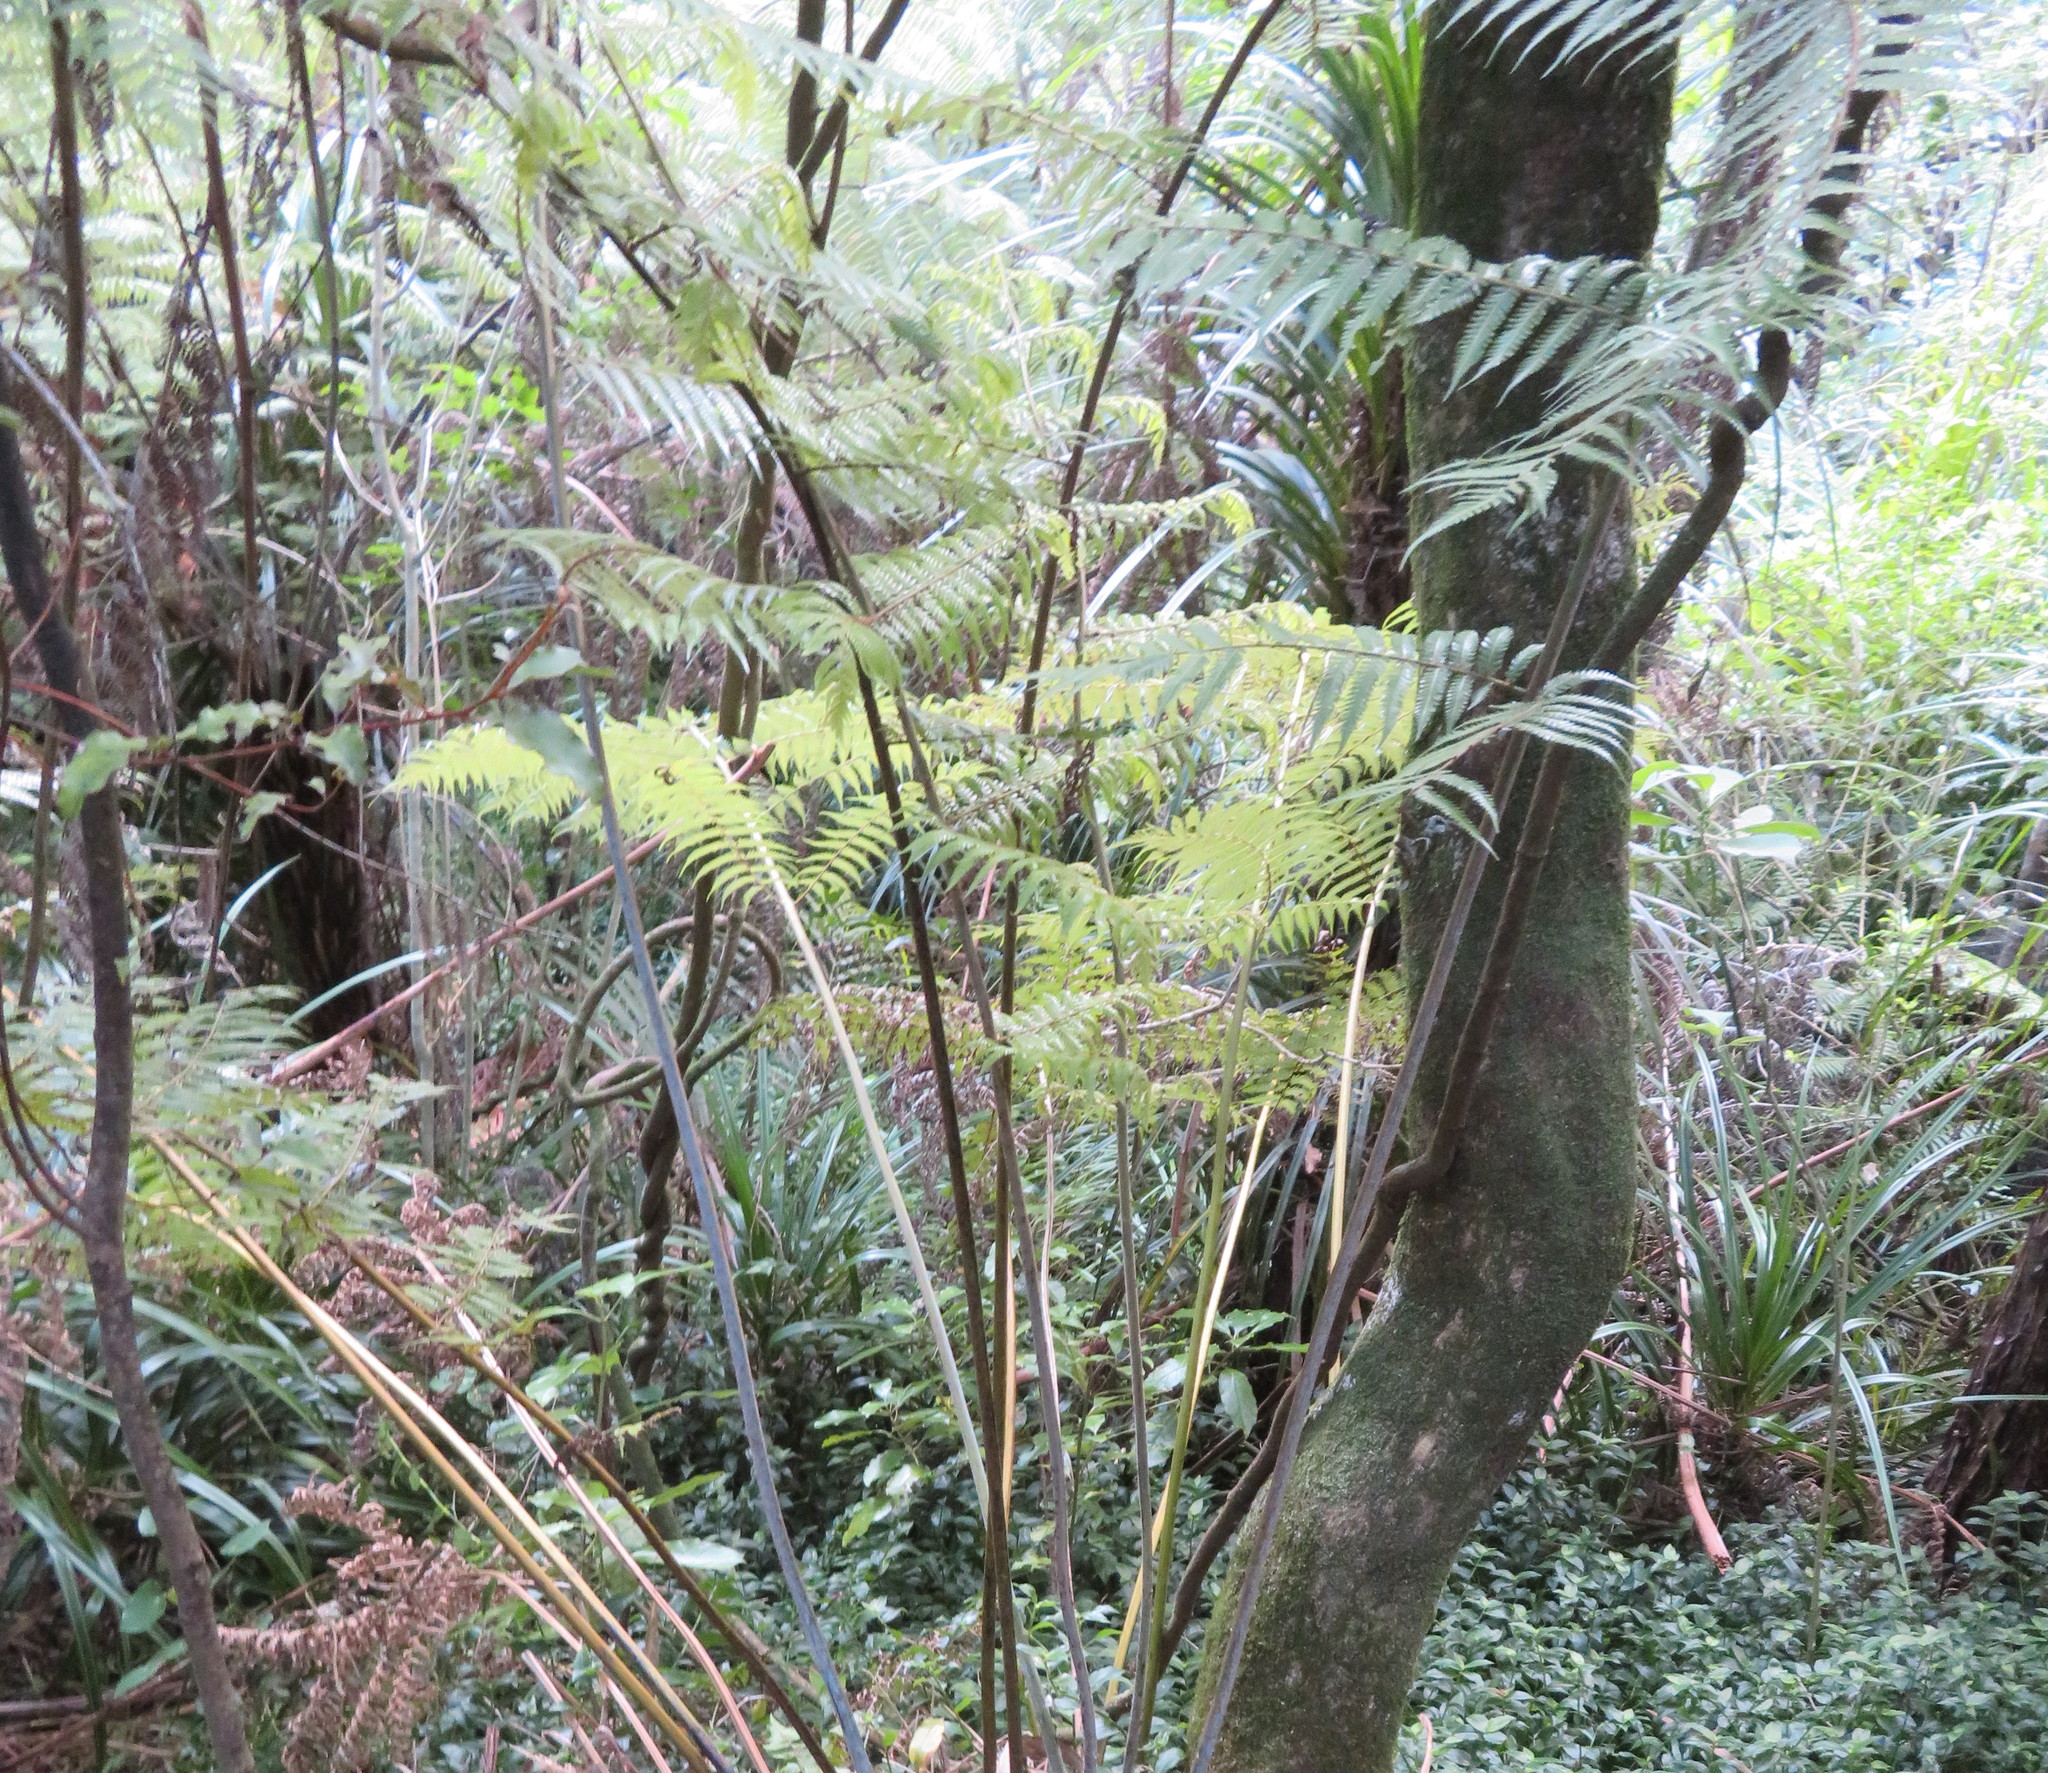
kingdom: Plantae
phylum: Tracheophyta
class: Polypodiopsida
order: Cyatheales
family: Cyatheaceae
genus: Alsophila
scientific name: Alsophila dealbata
